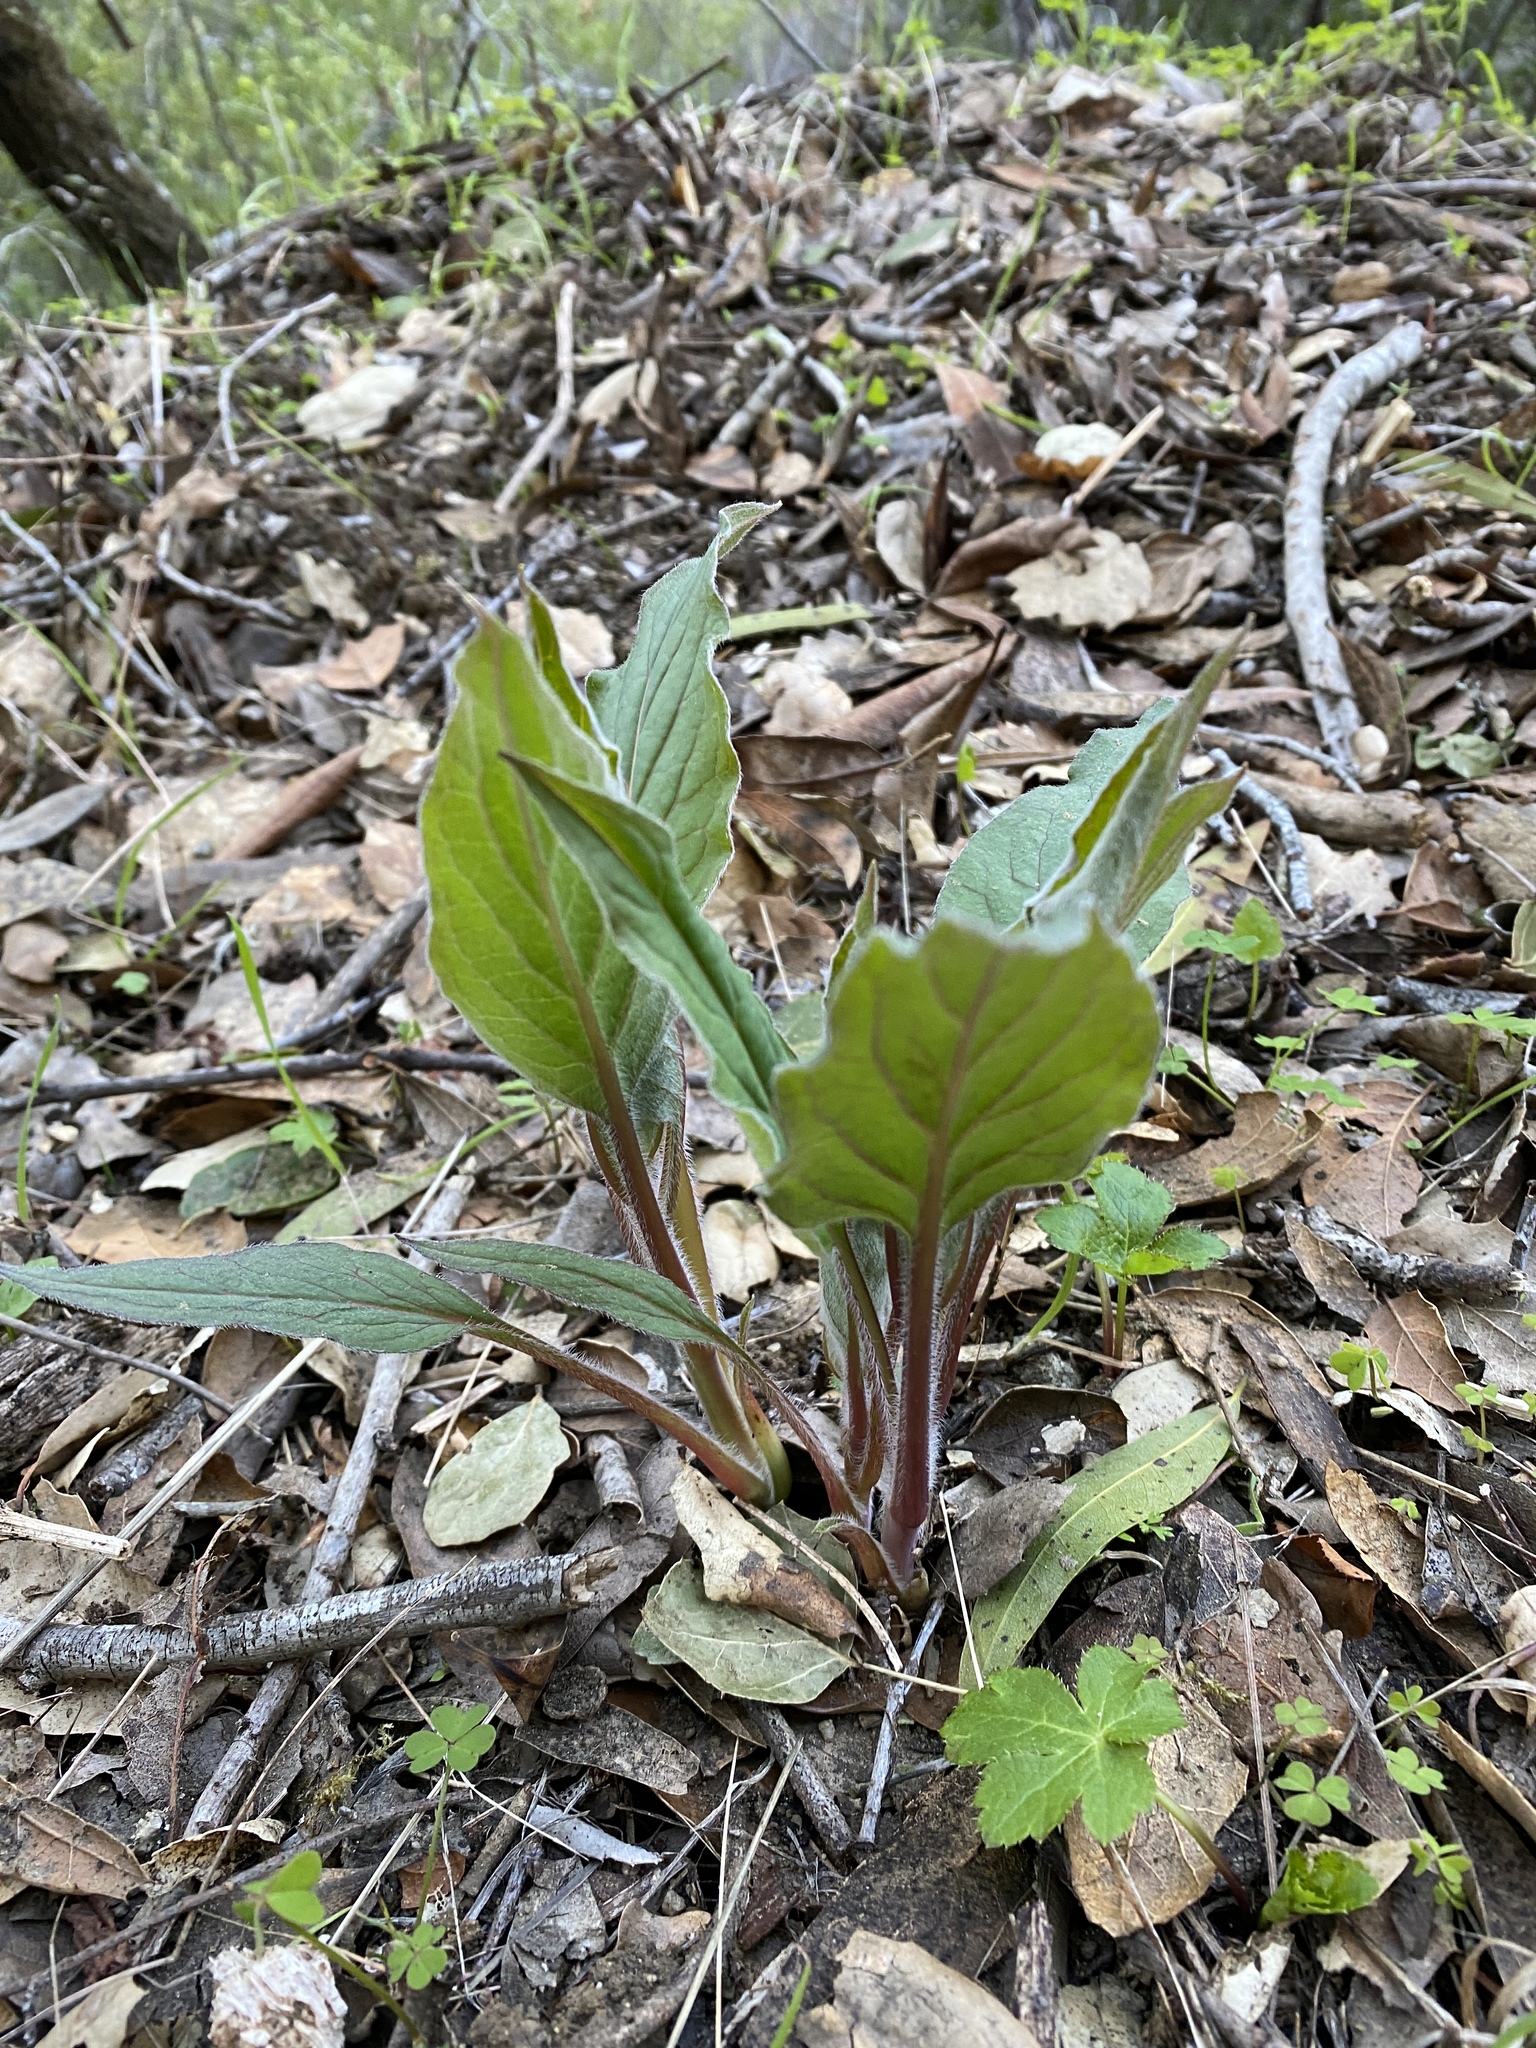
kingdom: Plantae
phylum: Tracheophyta
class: Magnoliopsida
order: Boraginales
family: Boraginaceae
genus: Adelinia
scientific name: Adelinia grande
